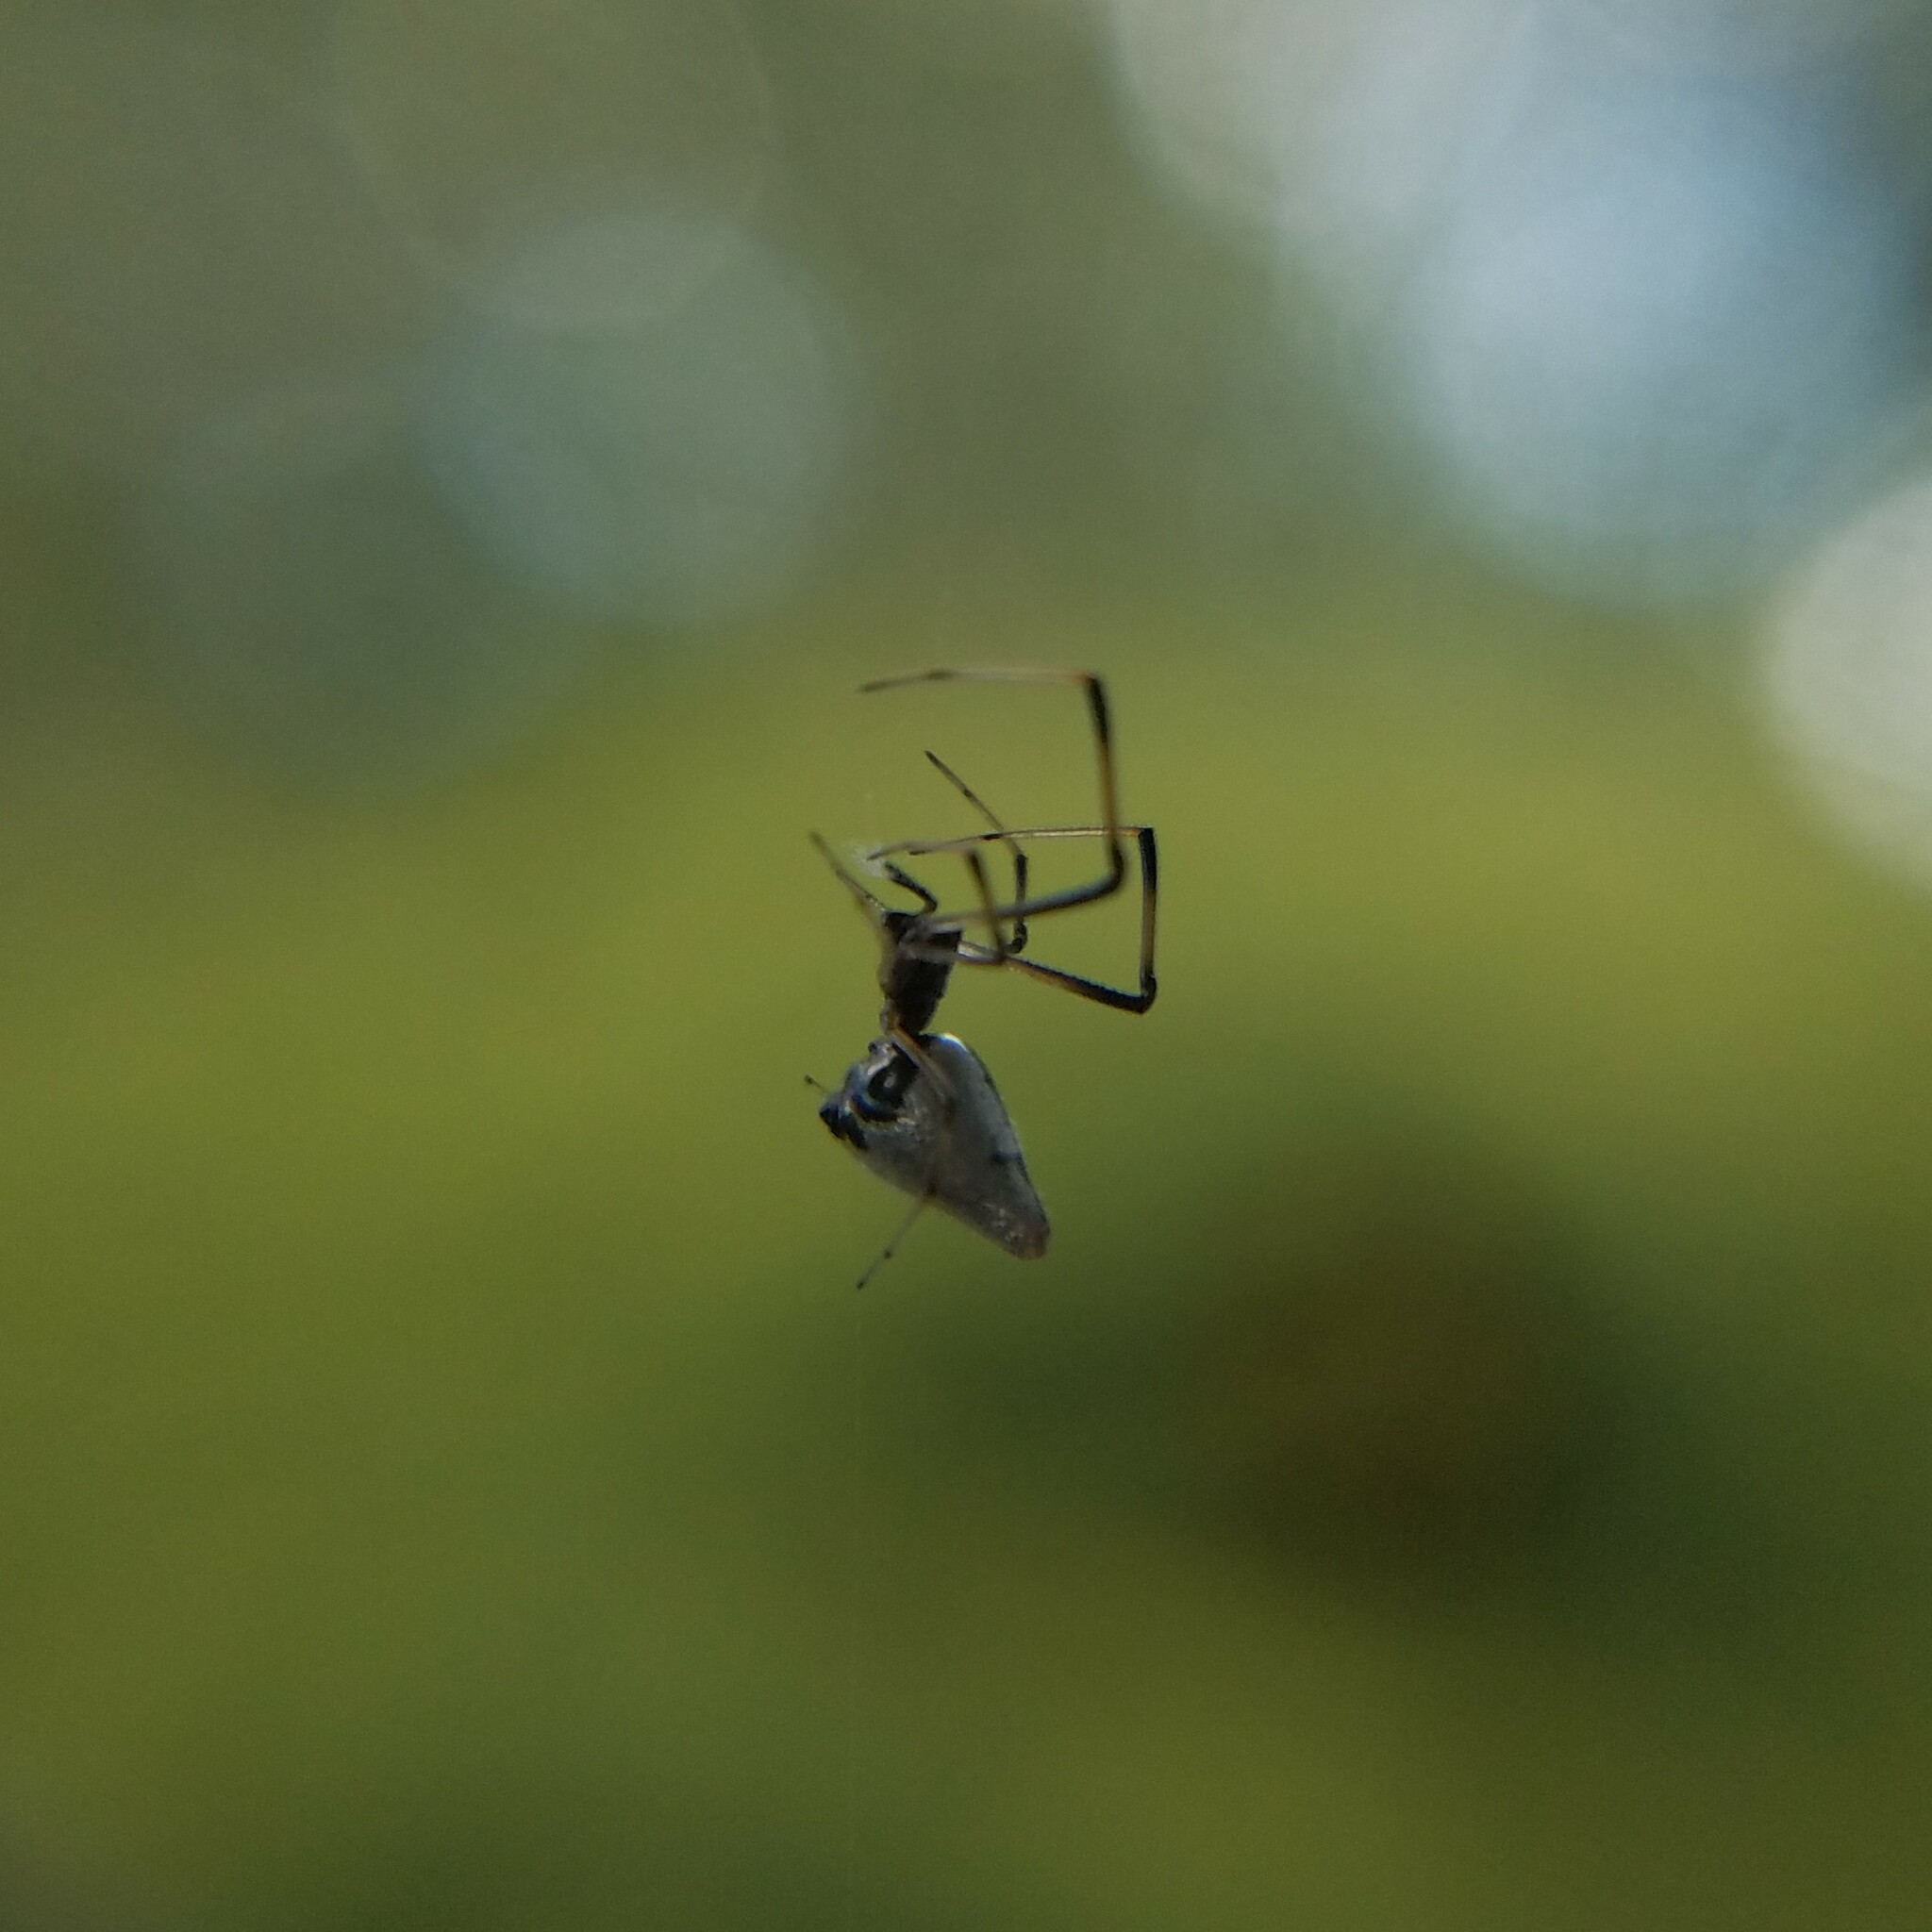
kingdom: Animalia
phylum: Arthropoda
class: Arachnida
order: Araneae
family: Theridiidae
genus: Argyrodes
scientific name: Argyrodes elevatus
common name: Cobweb spiders
